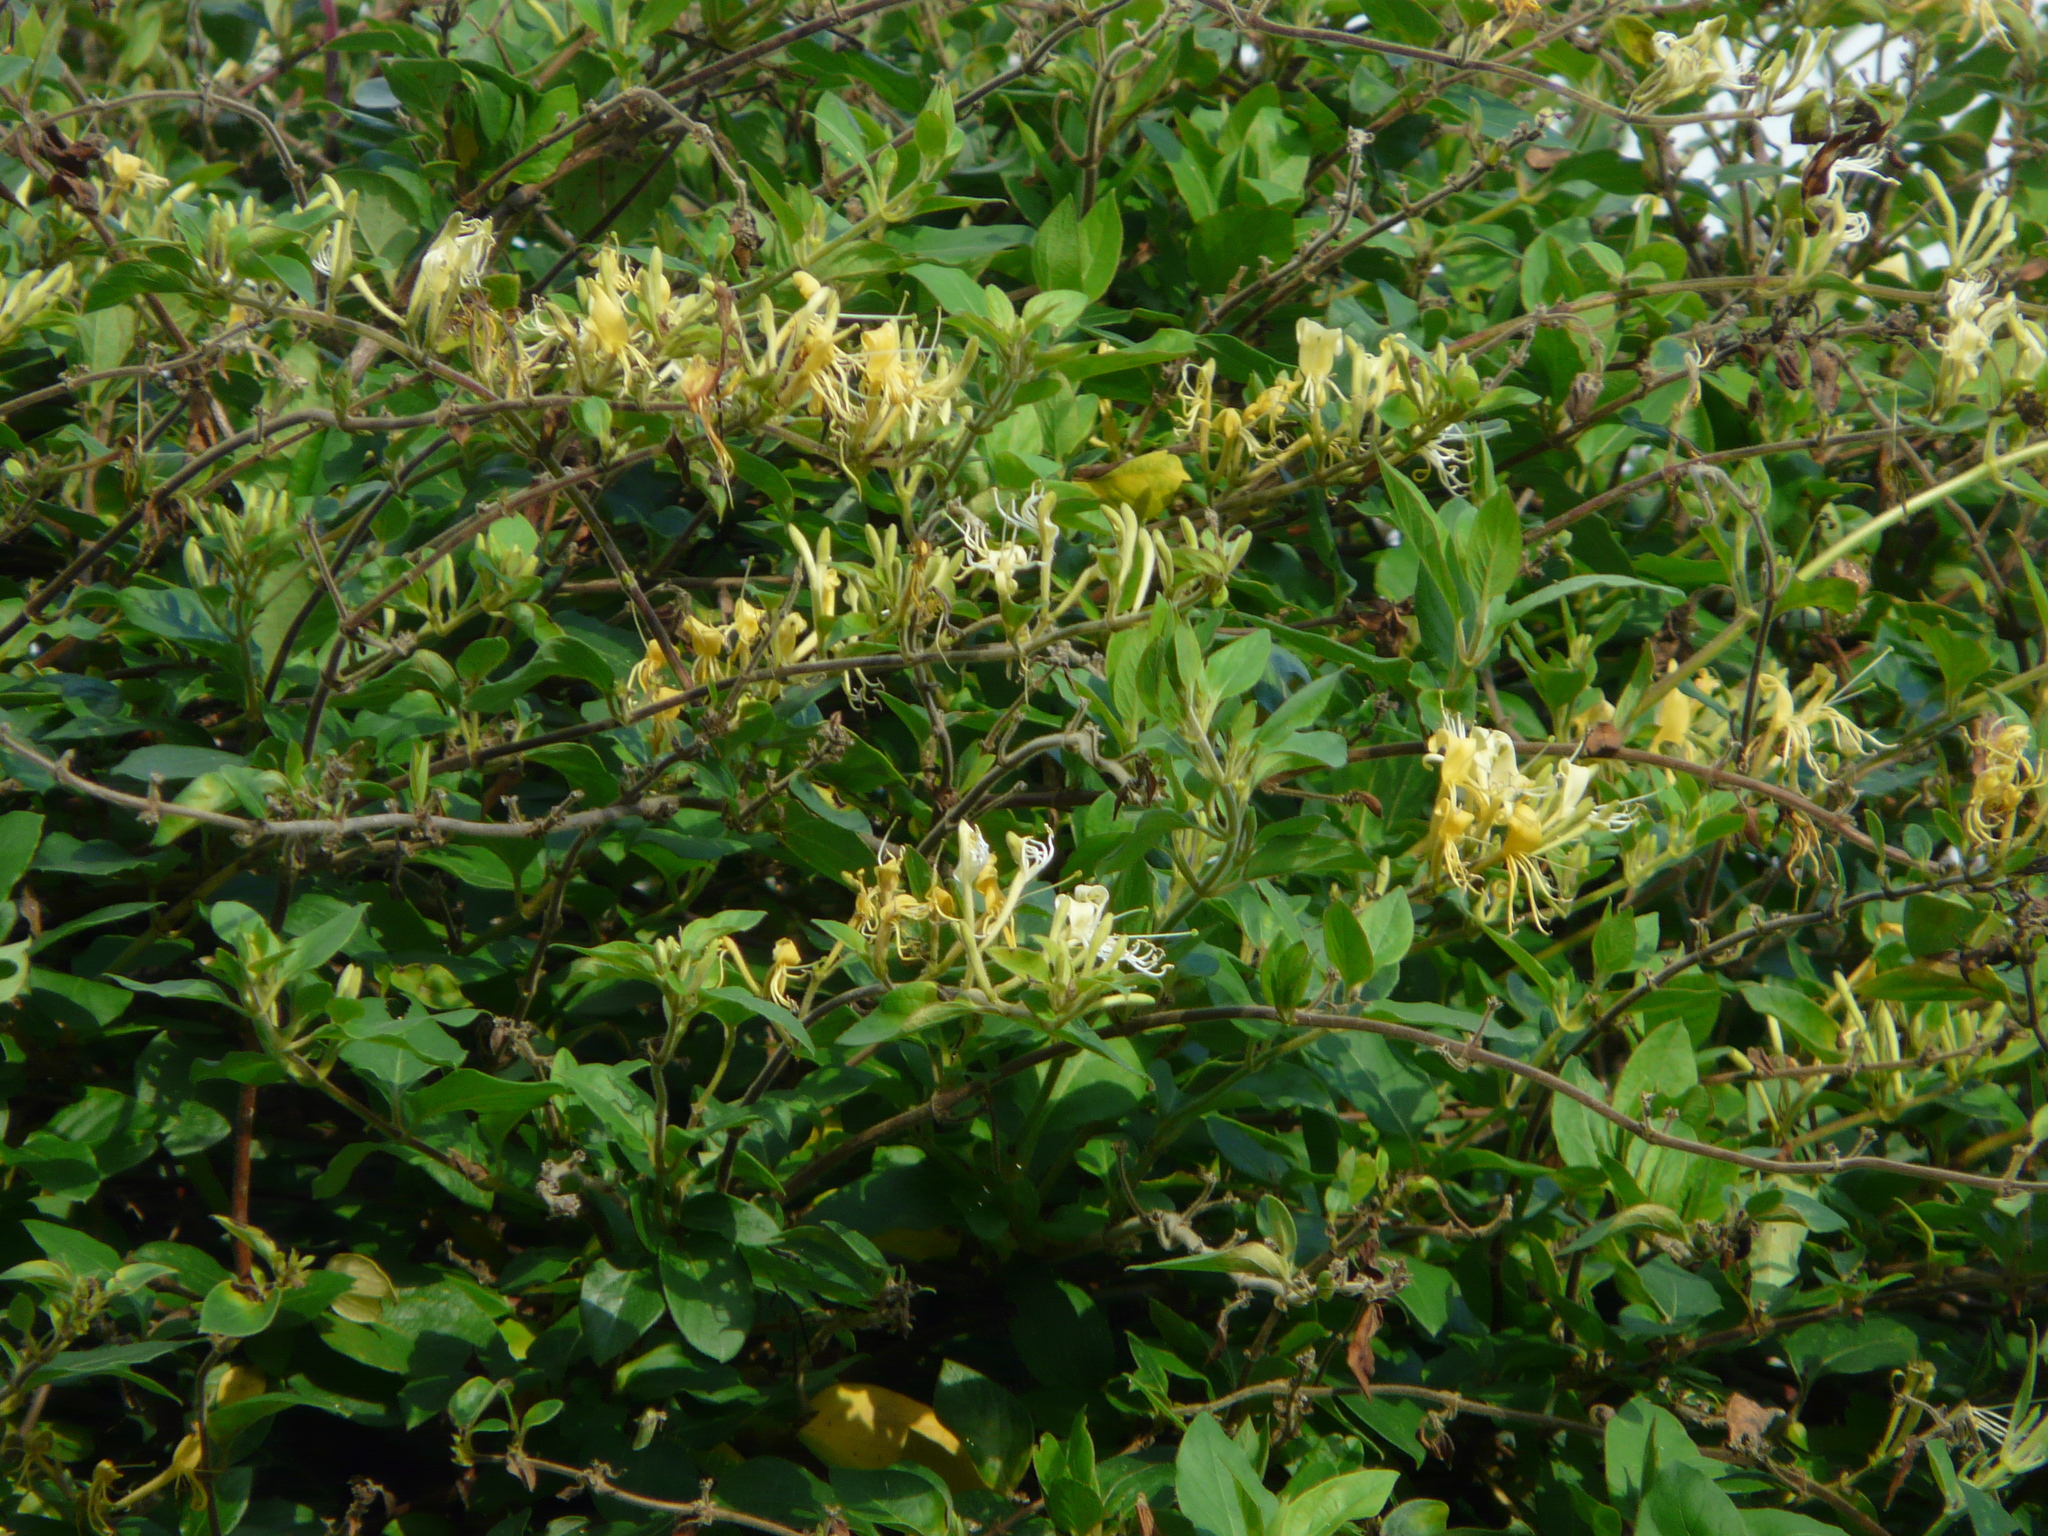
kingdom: Plantae
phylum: Tracheophyta
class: Magnoliopsida
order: Dipsacales
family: Caprifoliaceae
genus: Lonicera
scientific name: Lonicera periclymenum
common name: European honeysuckle
